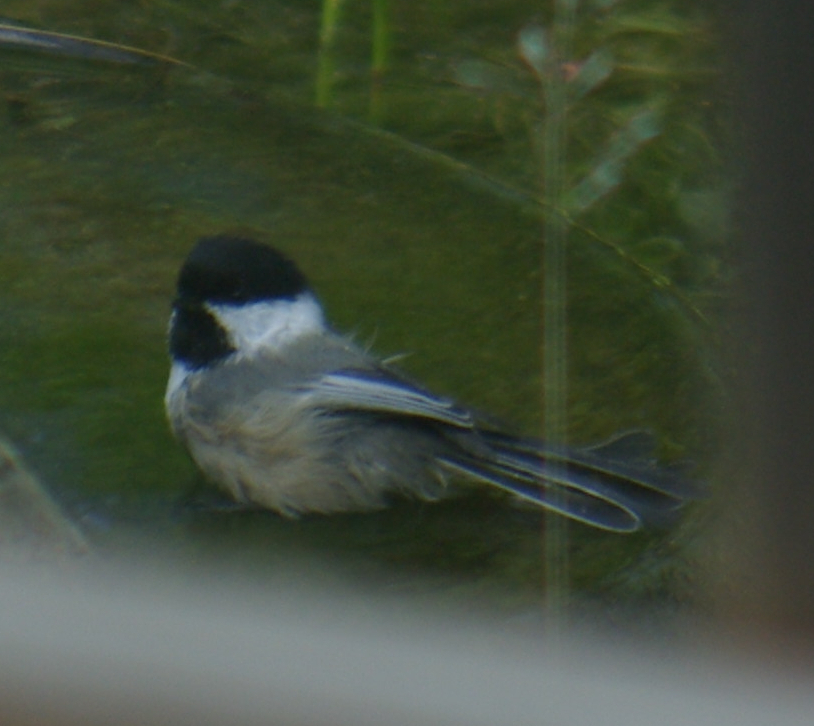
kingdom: Animalia
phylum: Chordata
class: Aves
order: Passeriformes
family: Paridae
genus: Poecile
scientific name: Poecile atricapillus
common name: Black-capped chickadee
